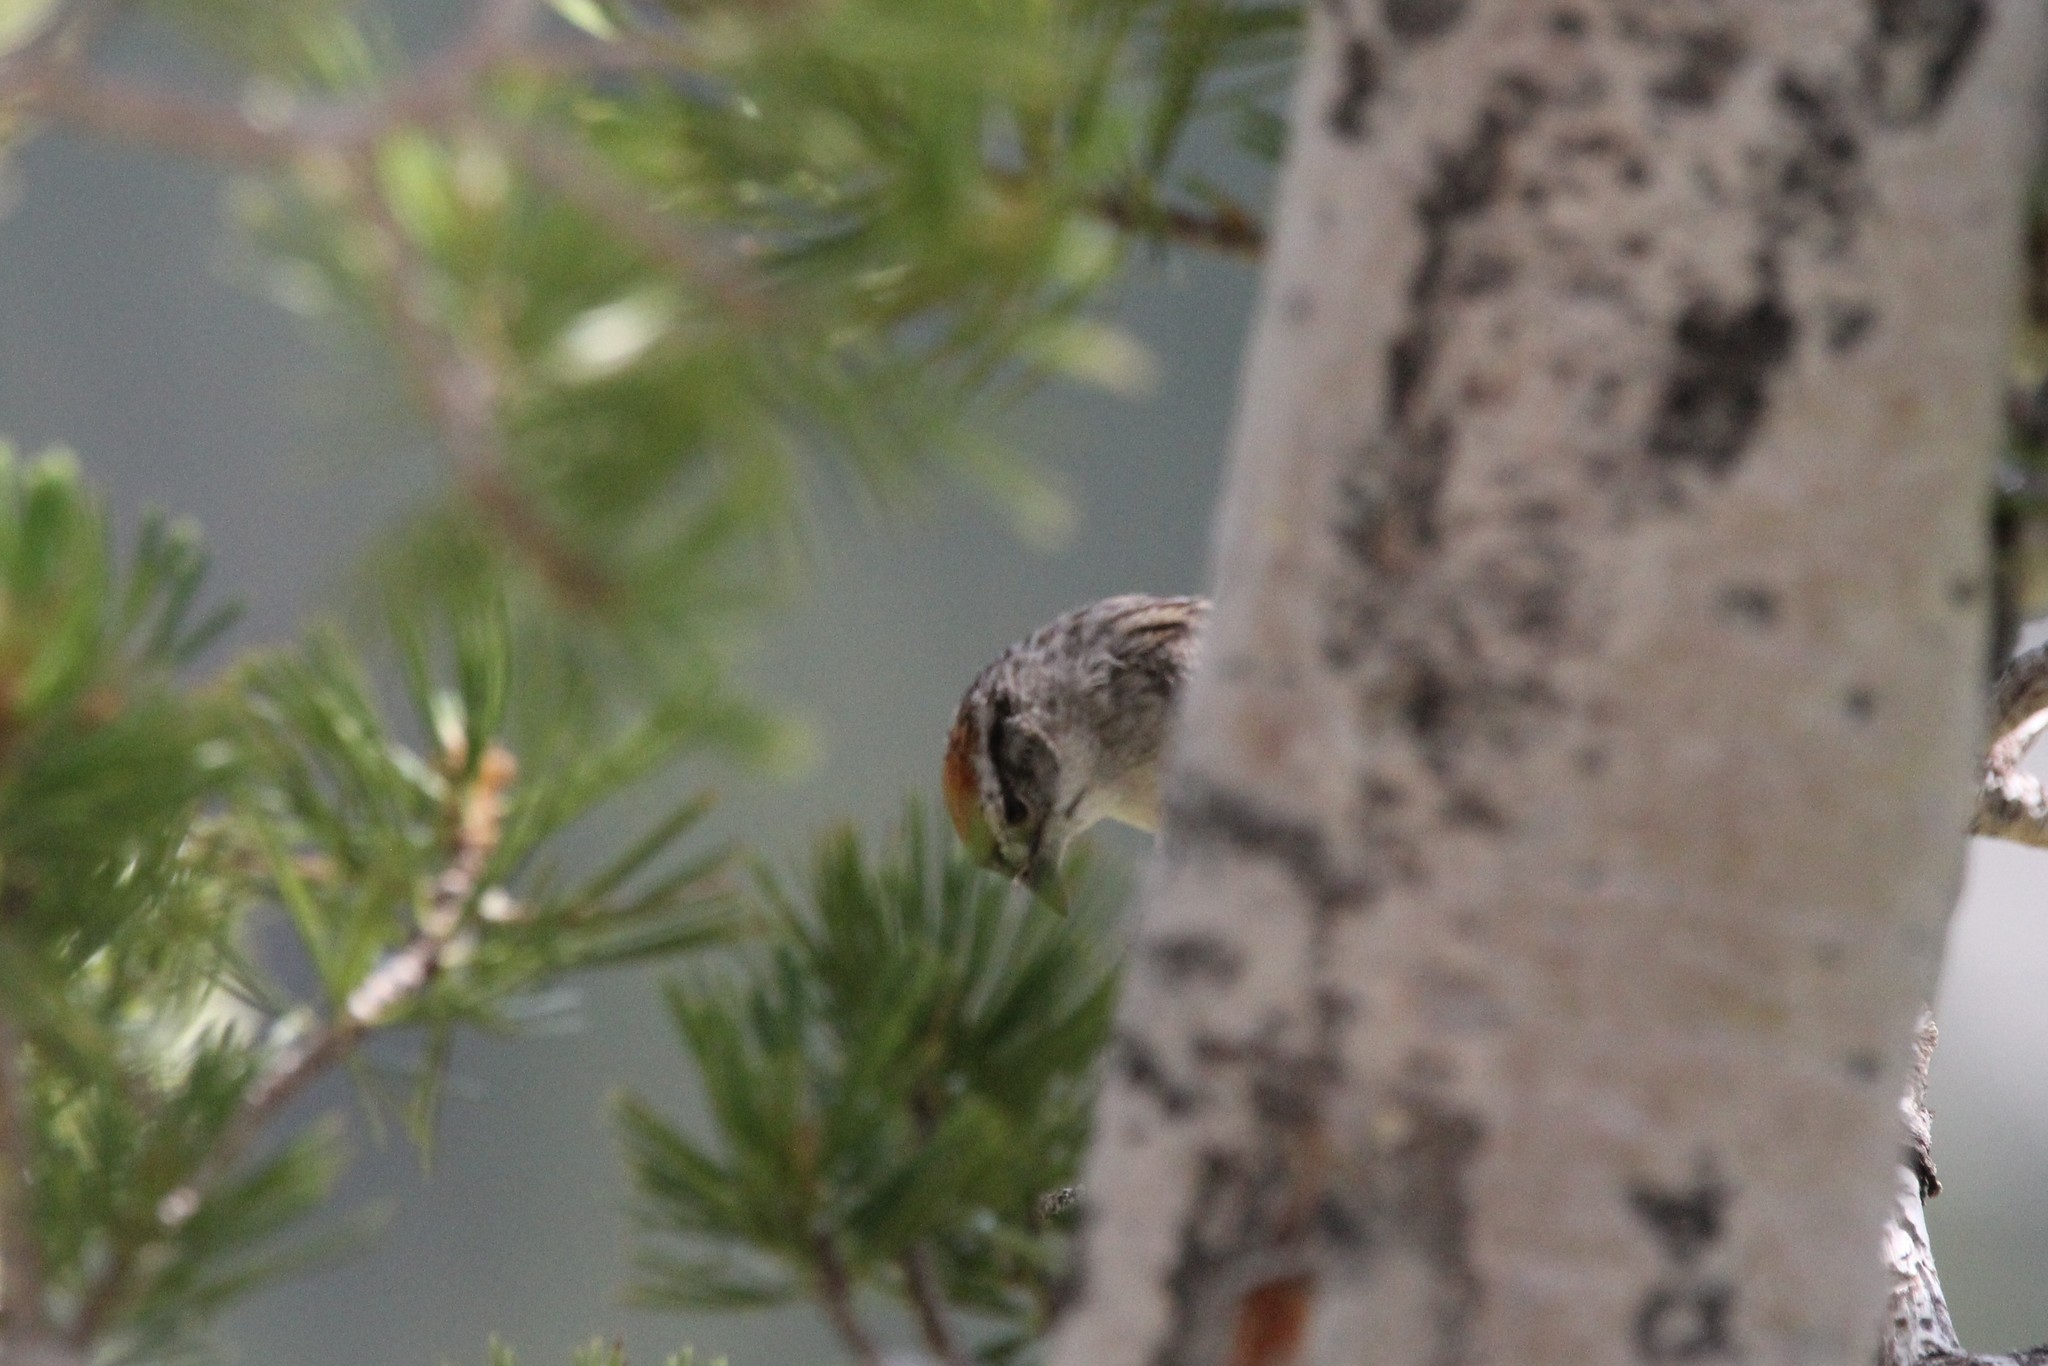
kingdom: Animalia
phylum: Chordata
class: Aves
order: Passeriformes
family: Passerellidae
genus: Spizella
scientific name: Spizella passerina
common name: Chipping sparrow
